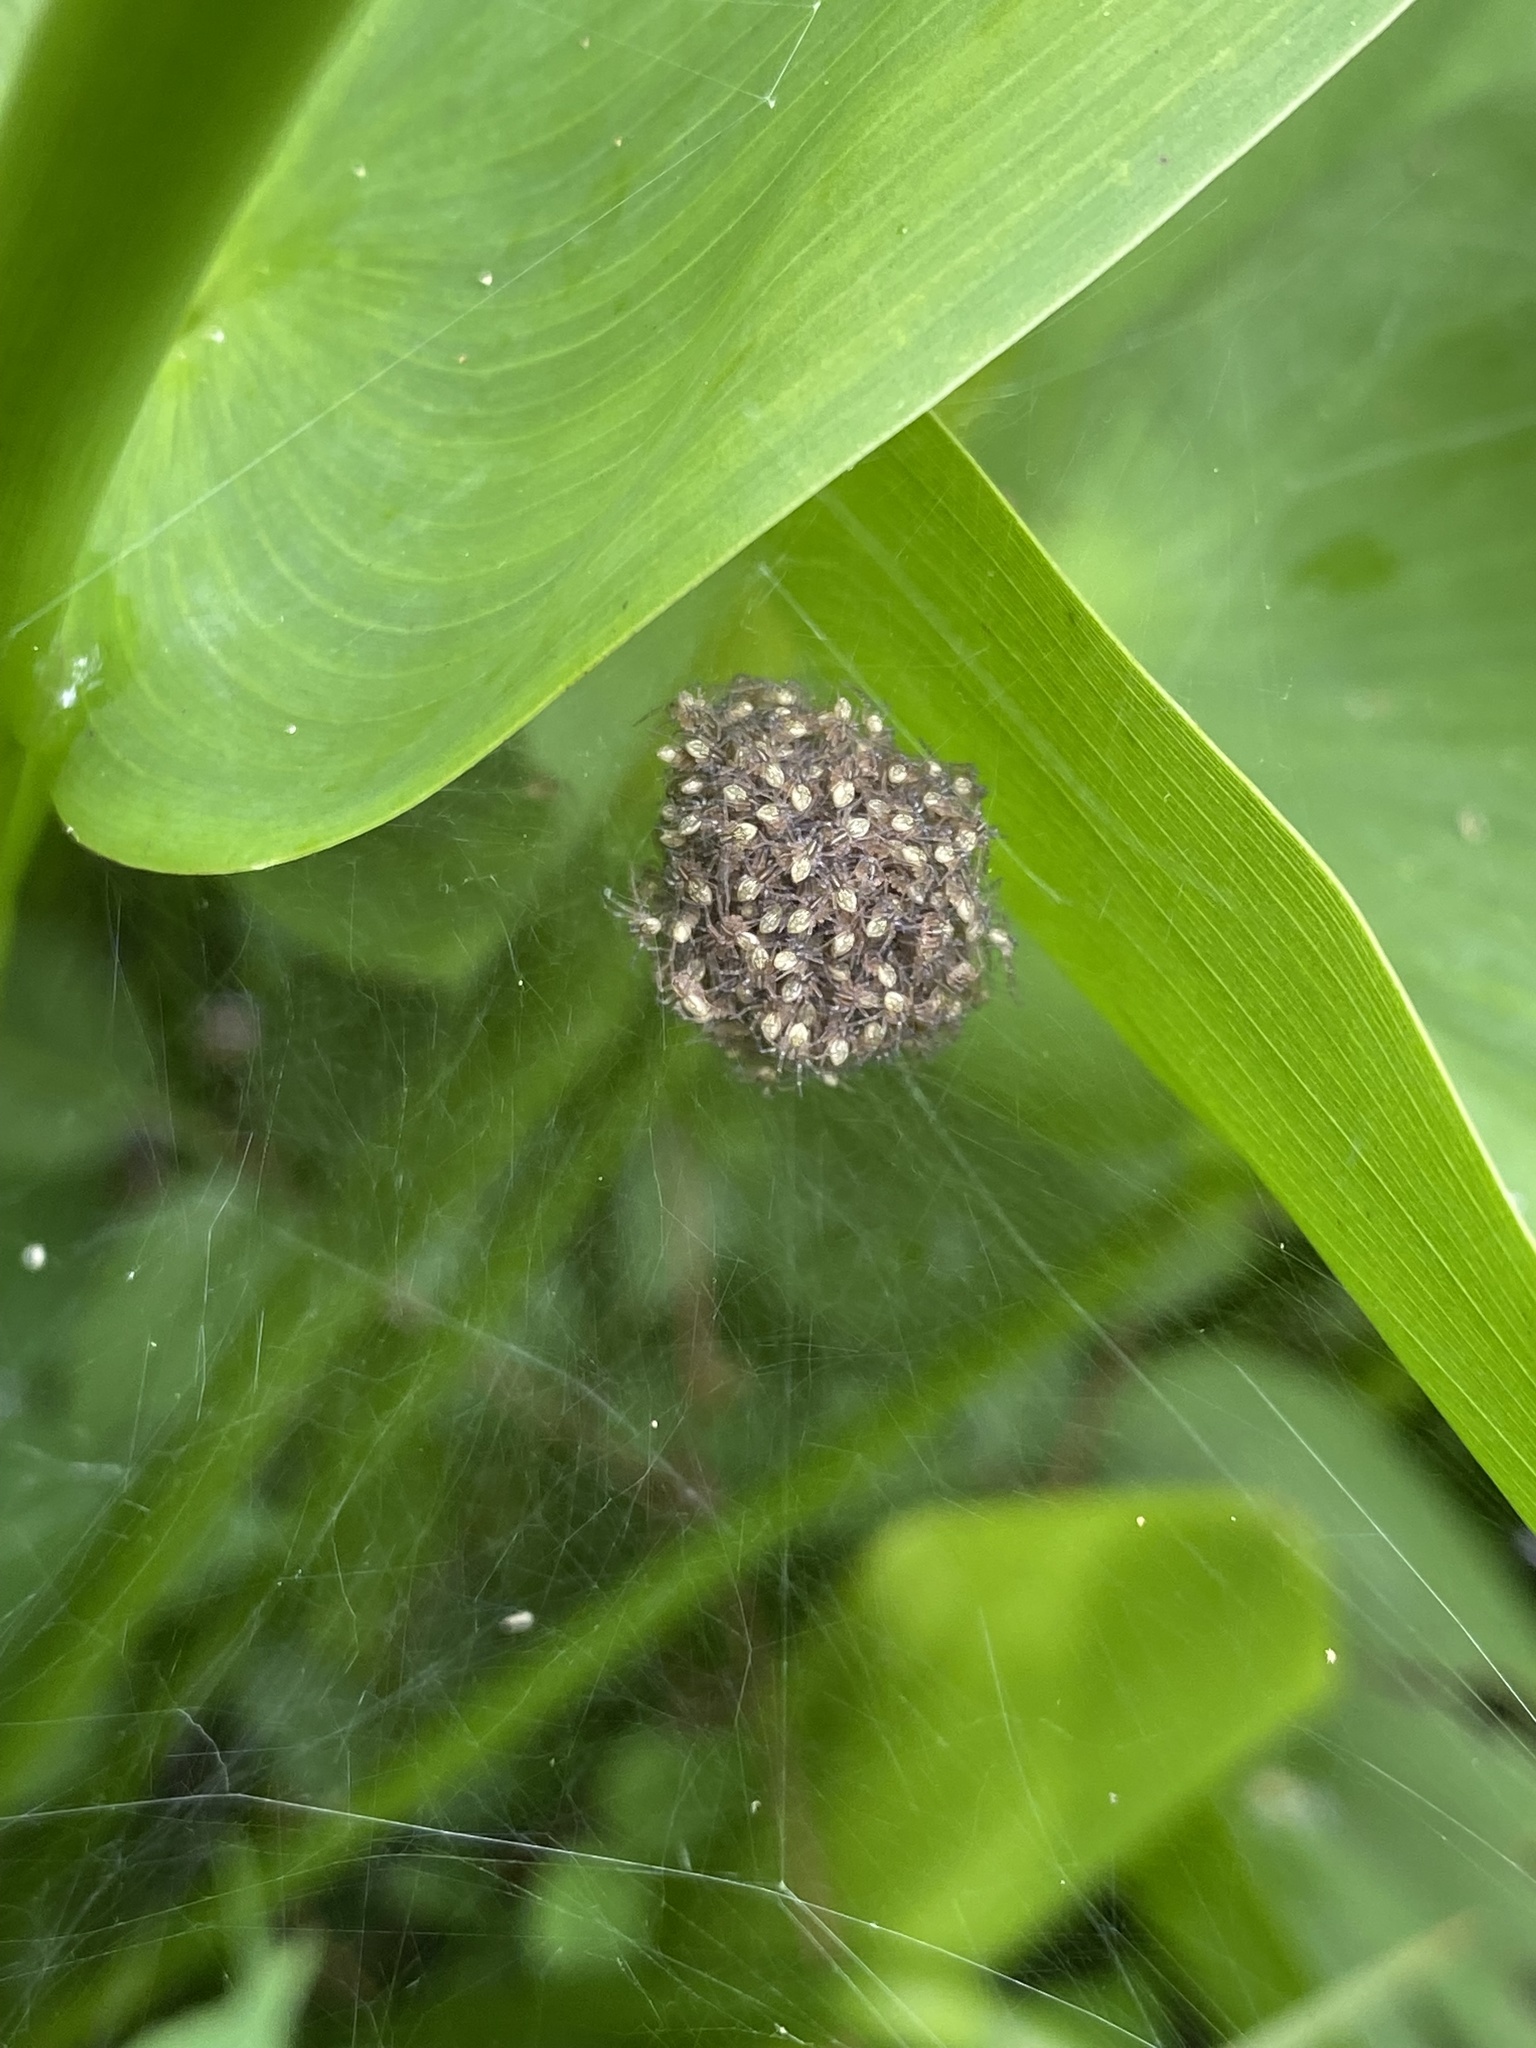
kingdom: Animalia
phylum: Arthropoda
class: Arachnida
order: Araneae
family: Pisauridae
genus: Dolomedes
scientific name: Dolomedes triton
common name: Six-spotted fishing spider
